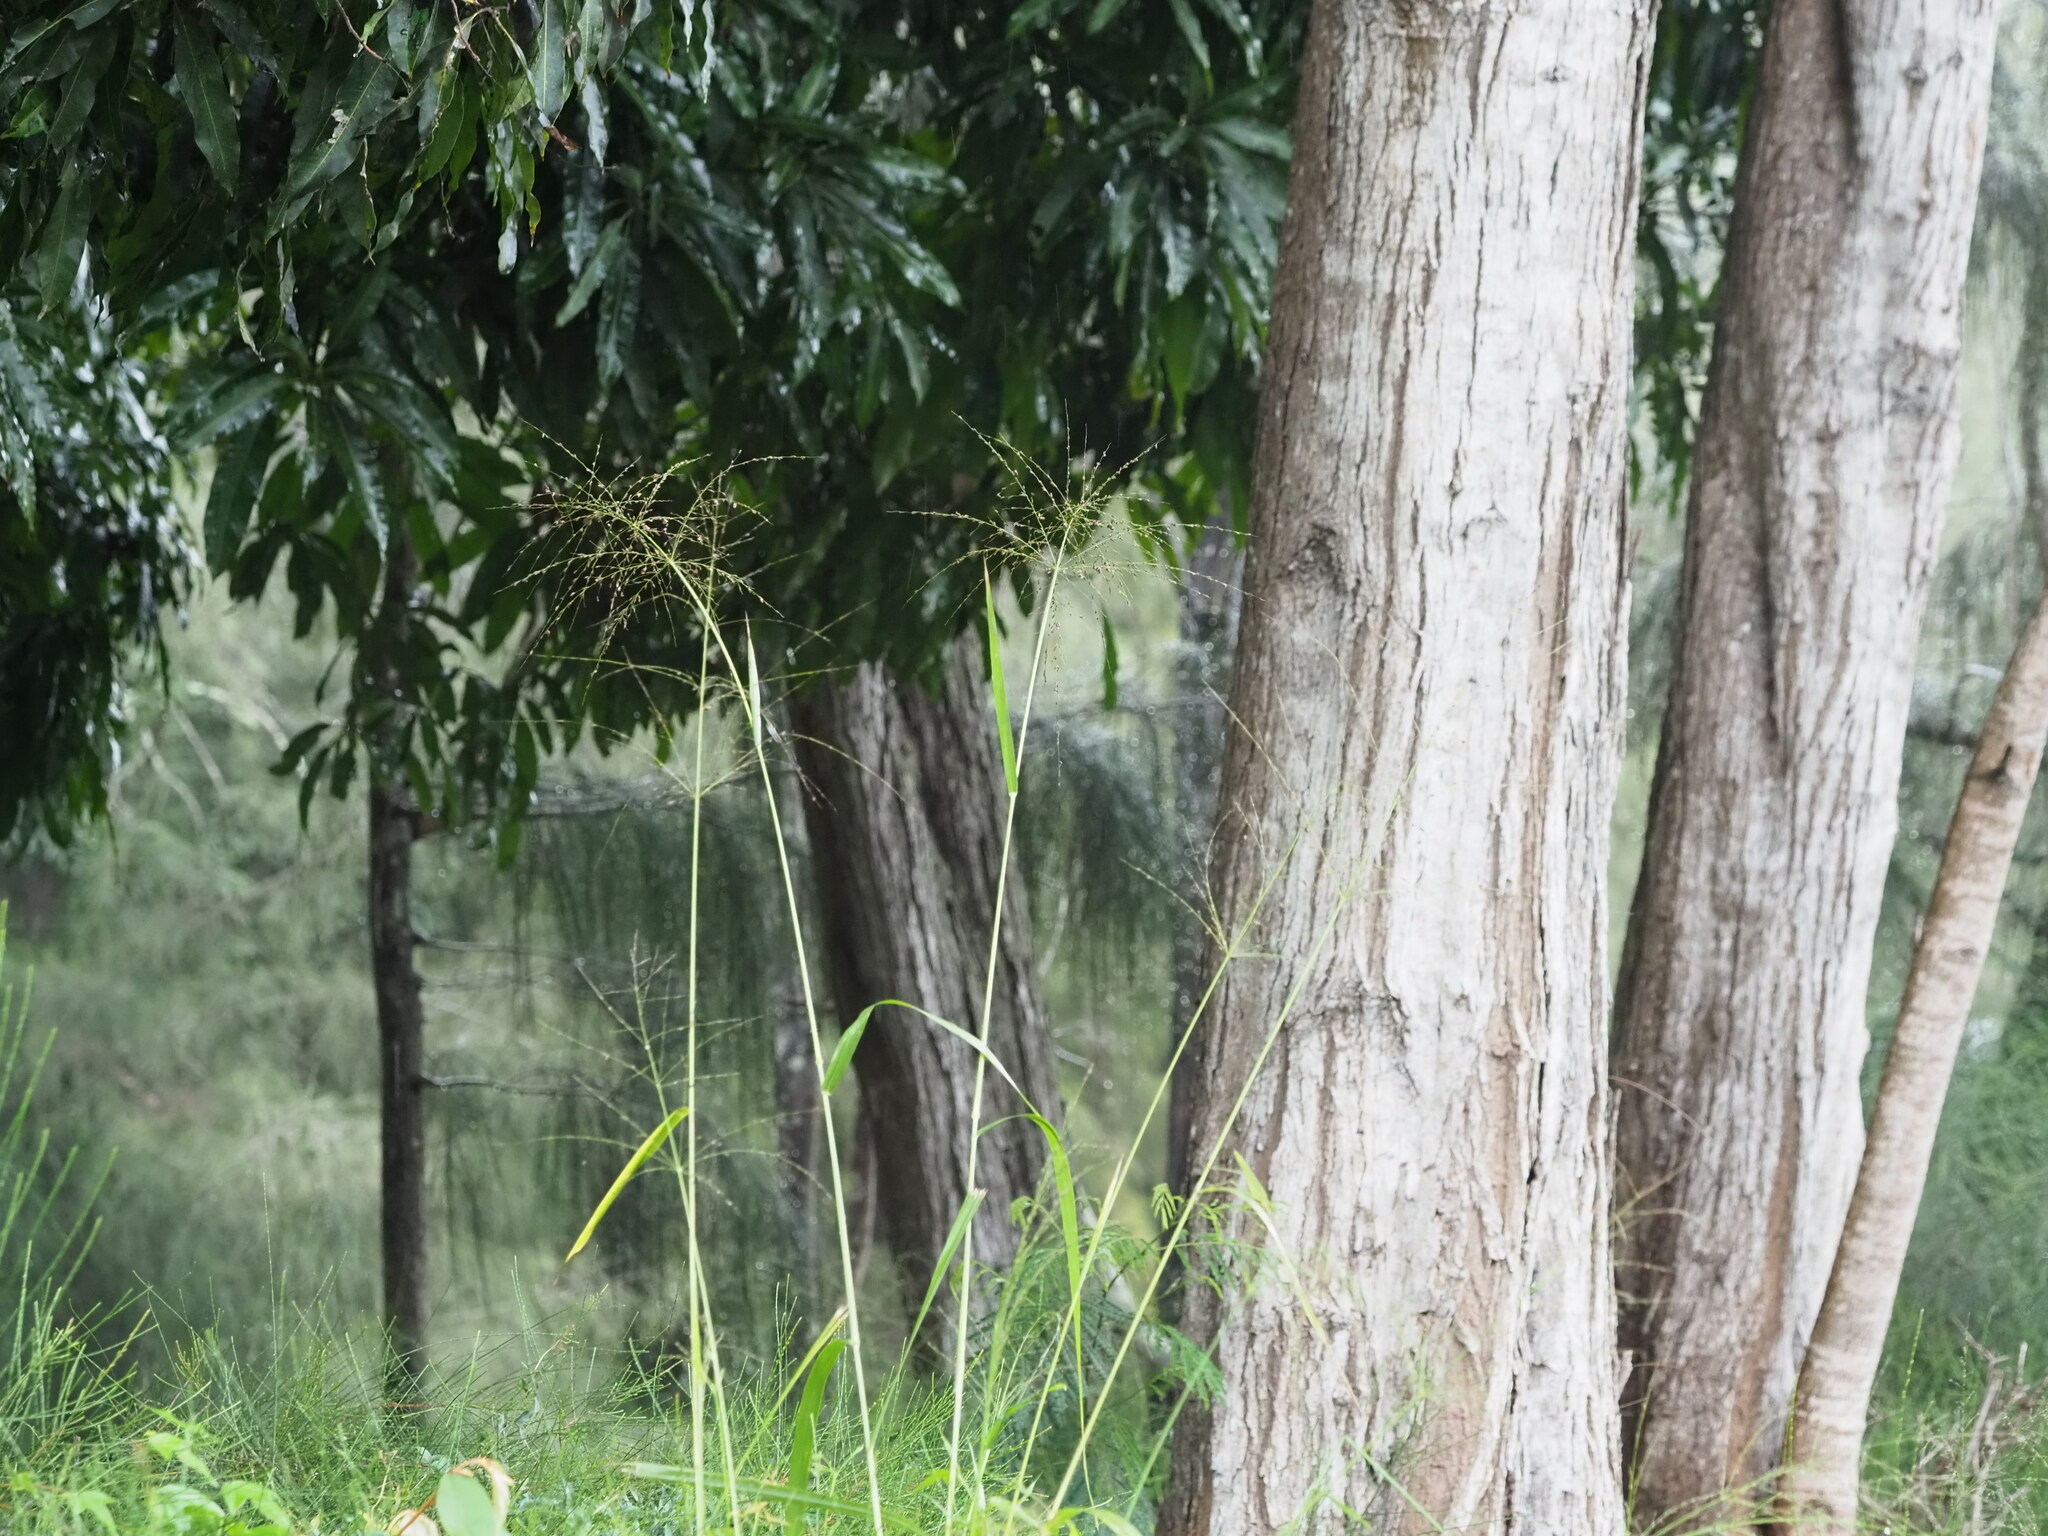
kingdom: Plantae
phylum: Tracheophyta
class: Liliopsida
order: Poales
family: Poaceae
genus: Megathyrsus
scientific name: Megathyrsus maximus
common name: Guineagrass
